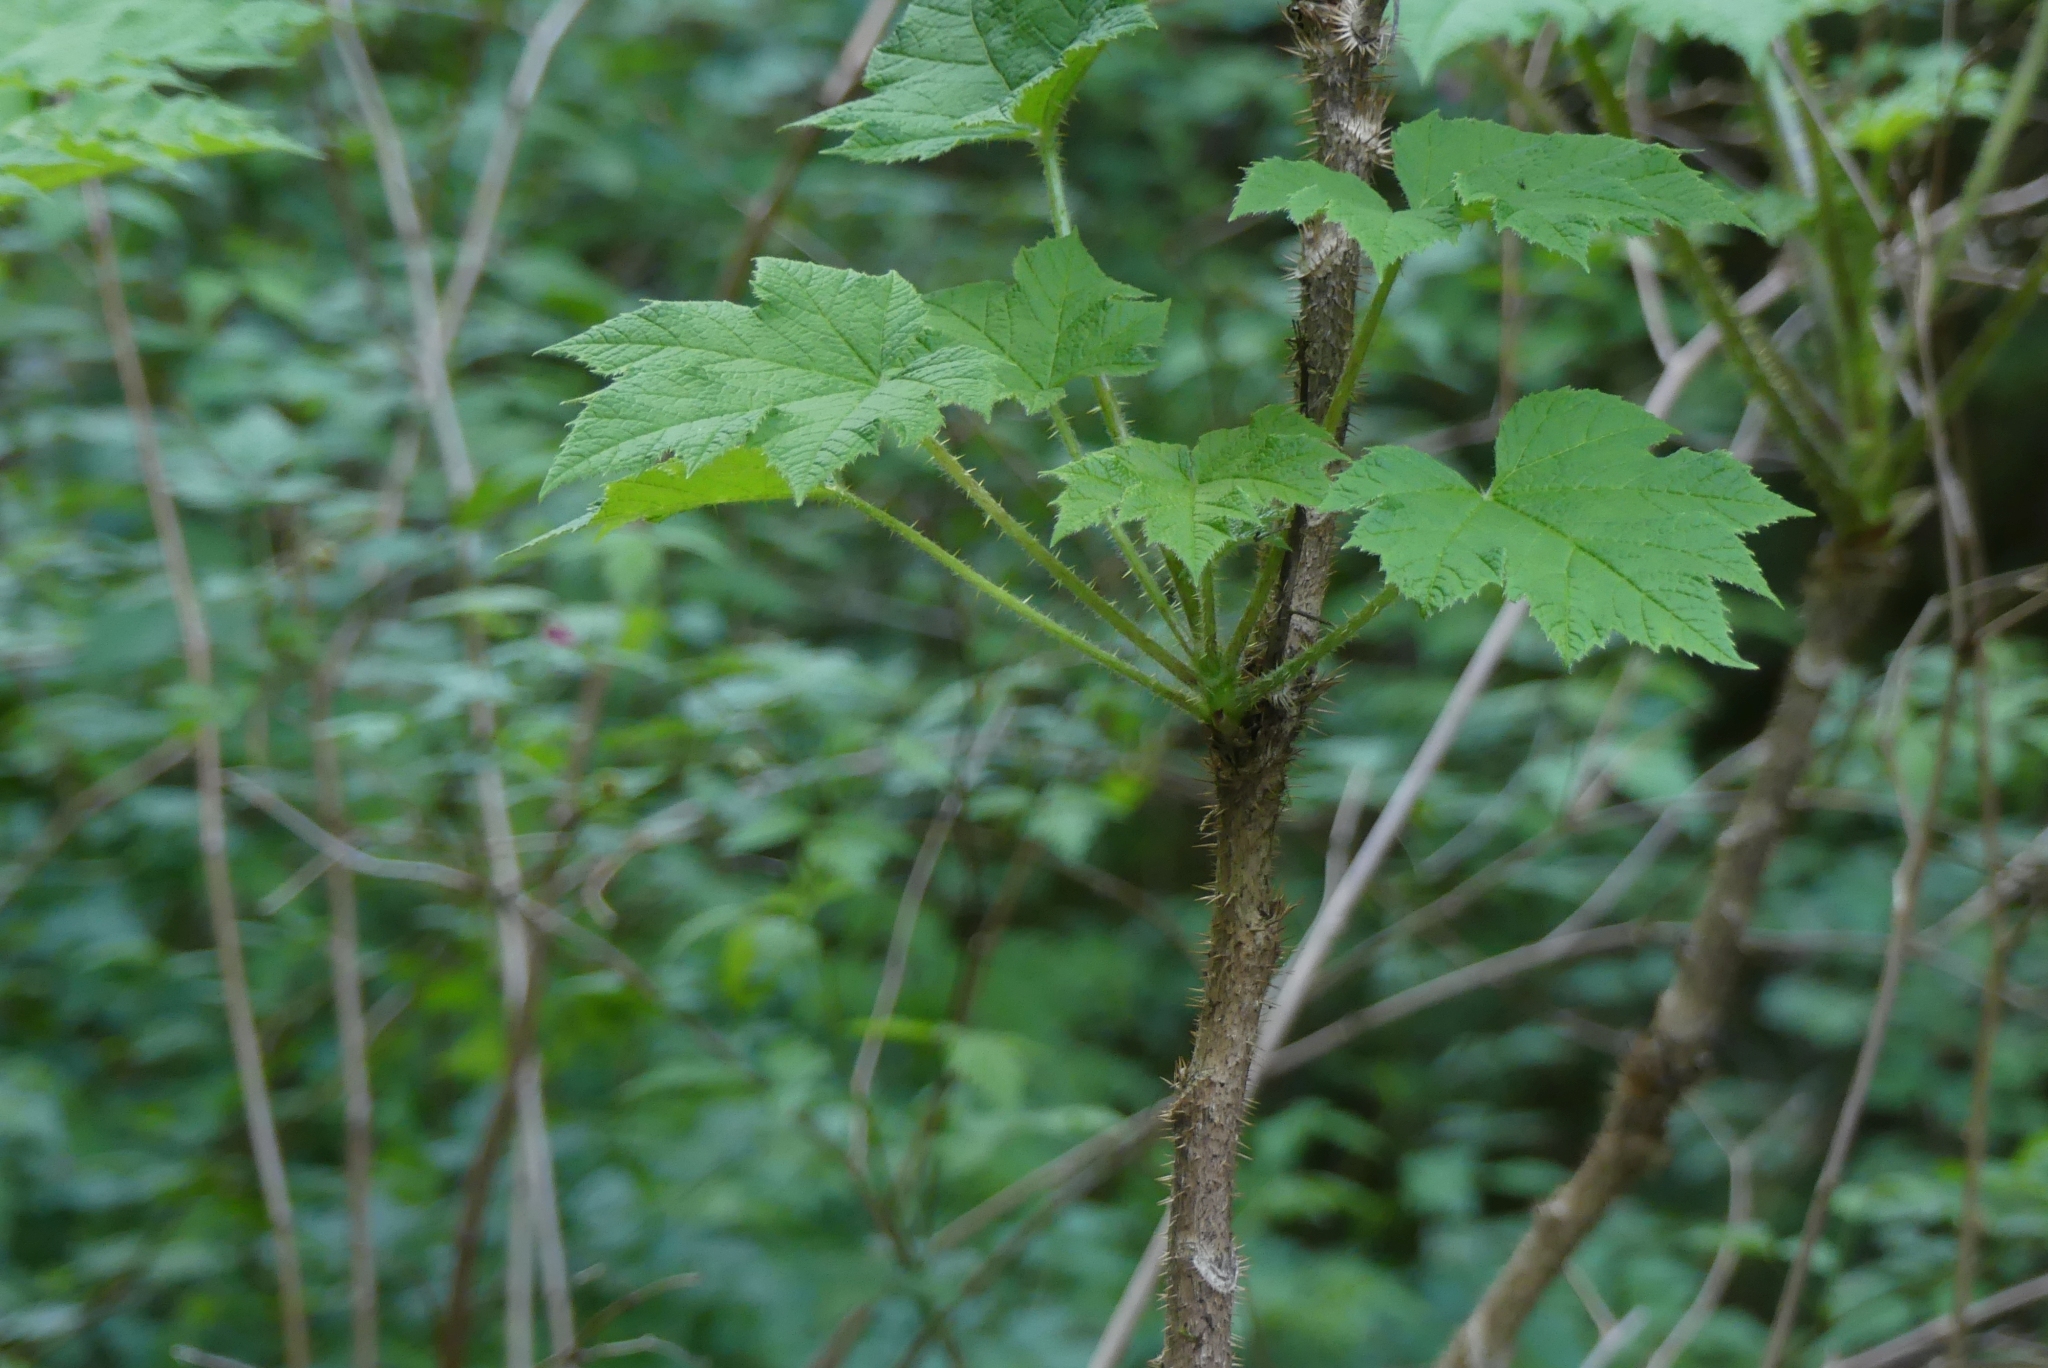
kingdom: Plantae
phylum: Tracheophyta
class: Magnoliopsida
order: Apiales
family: Araliaceae
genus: Oplopanax
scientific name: Oplopanax horridus
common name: Devil's walking-stick
